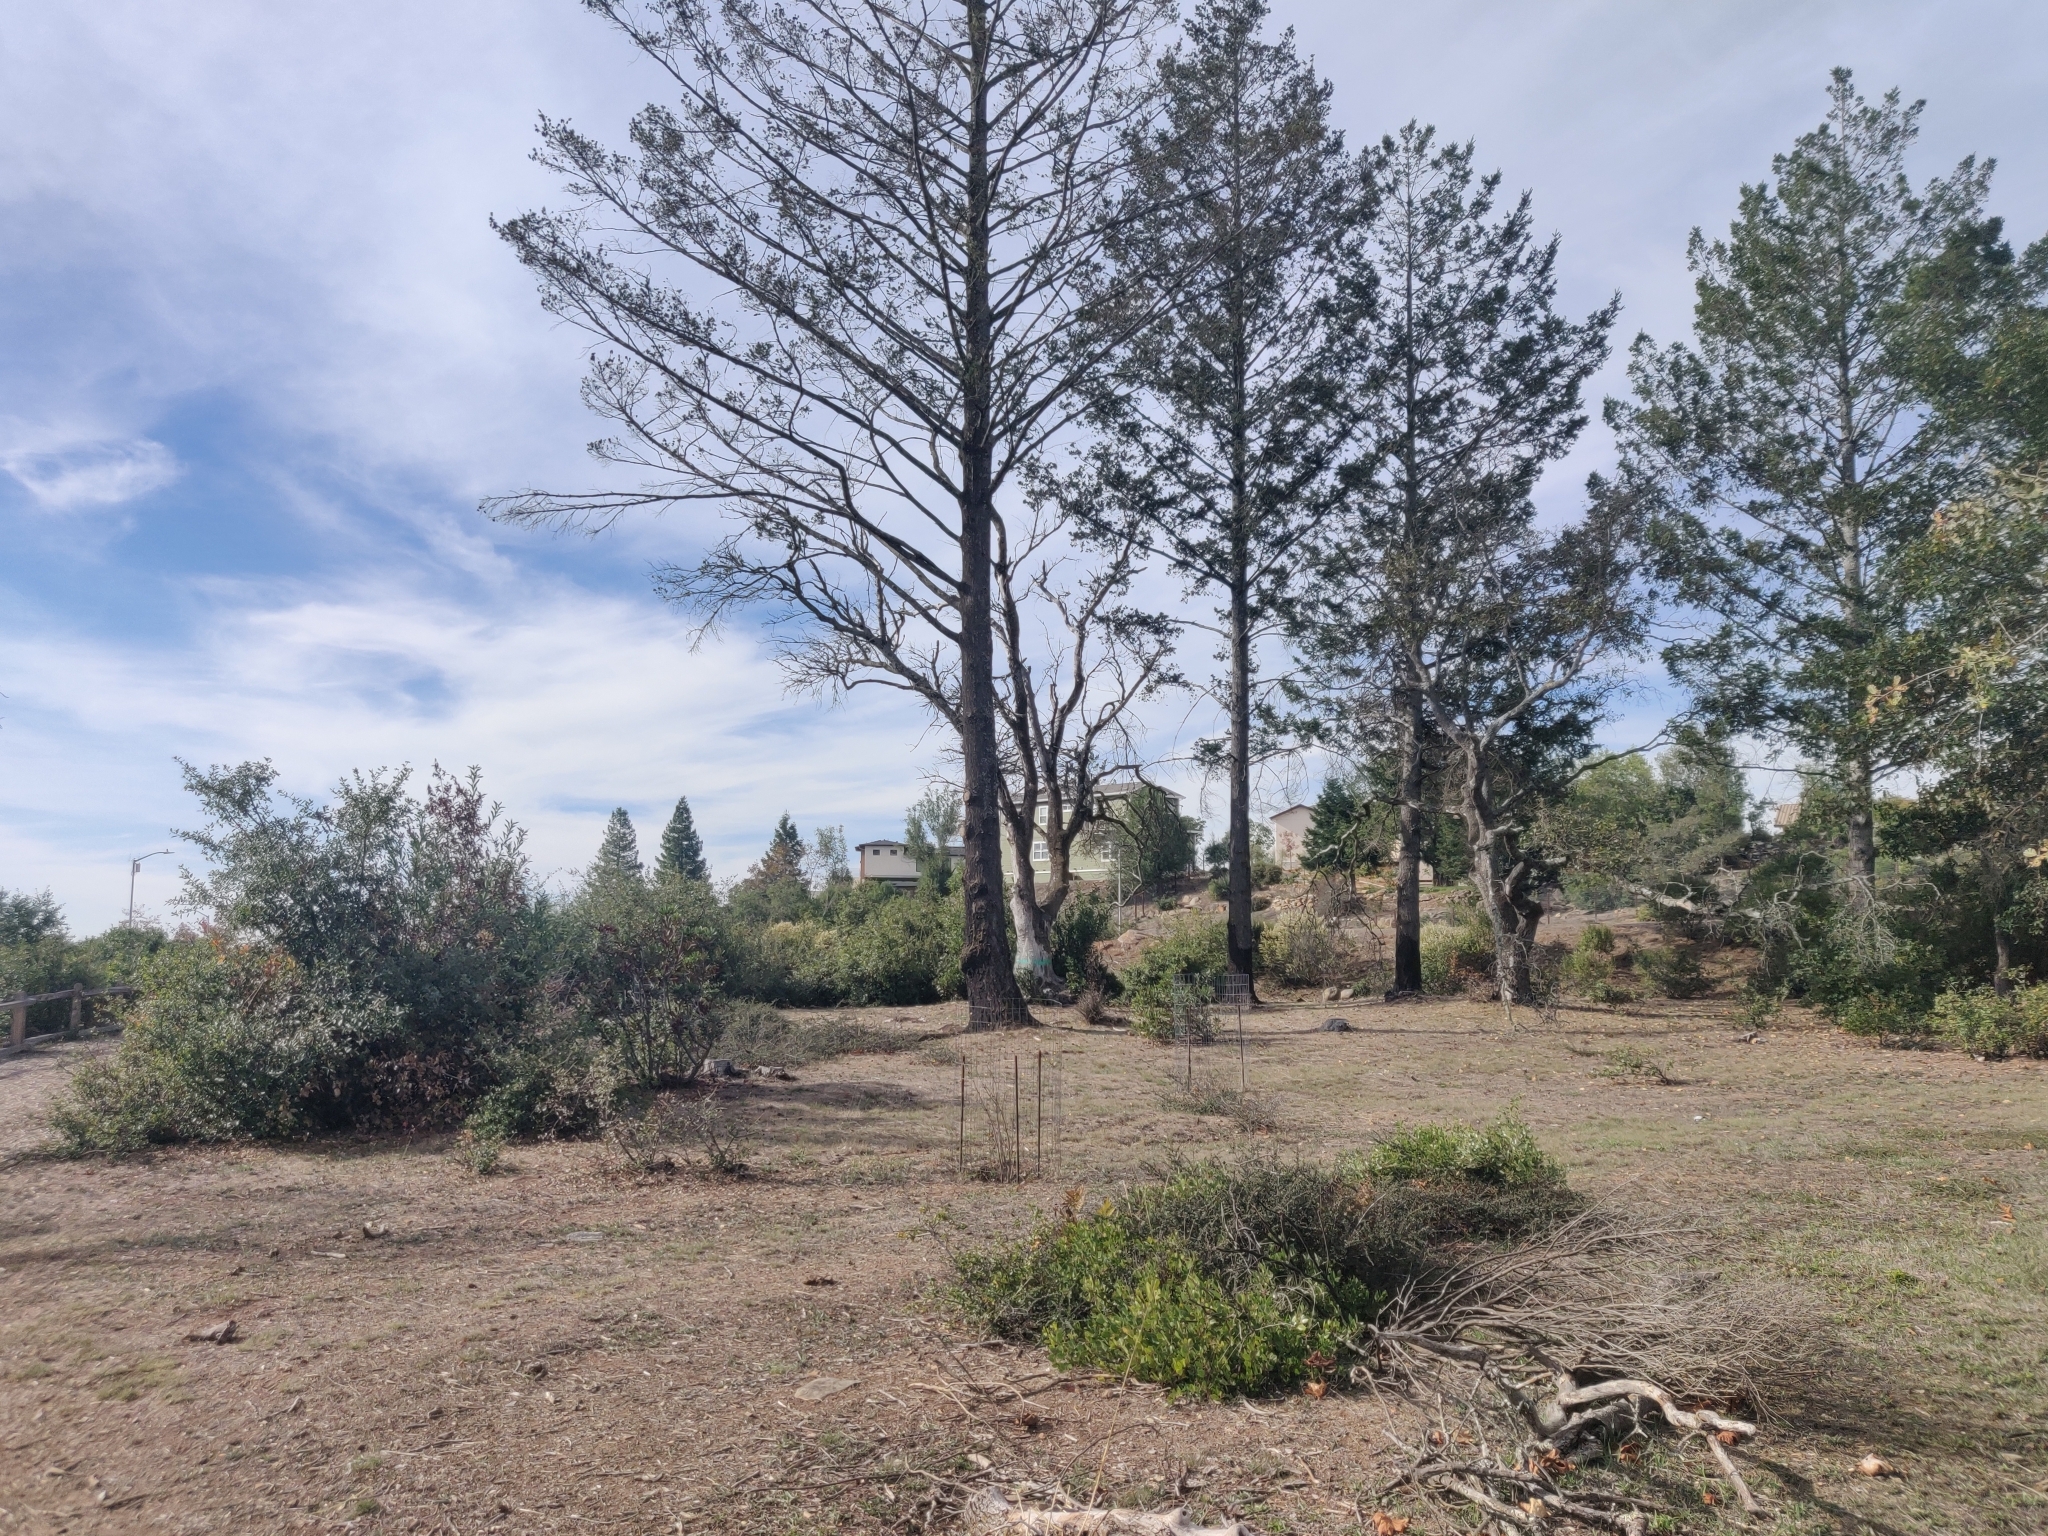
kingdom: Plantae
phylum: Tracheophyta
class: Magnoliopsida
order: Ericales
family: Ericaceae
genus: Arctostaphylos
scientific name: Arctostaphylos stanfordiana
